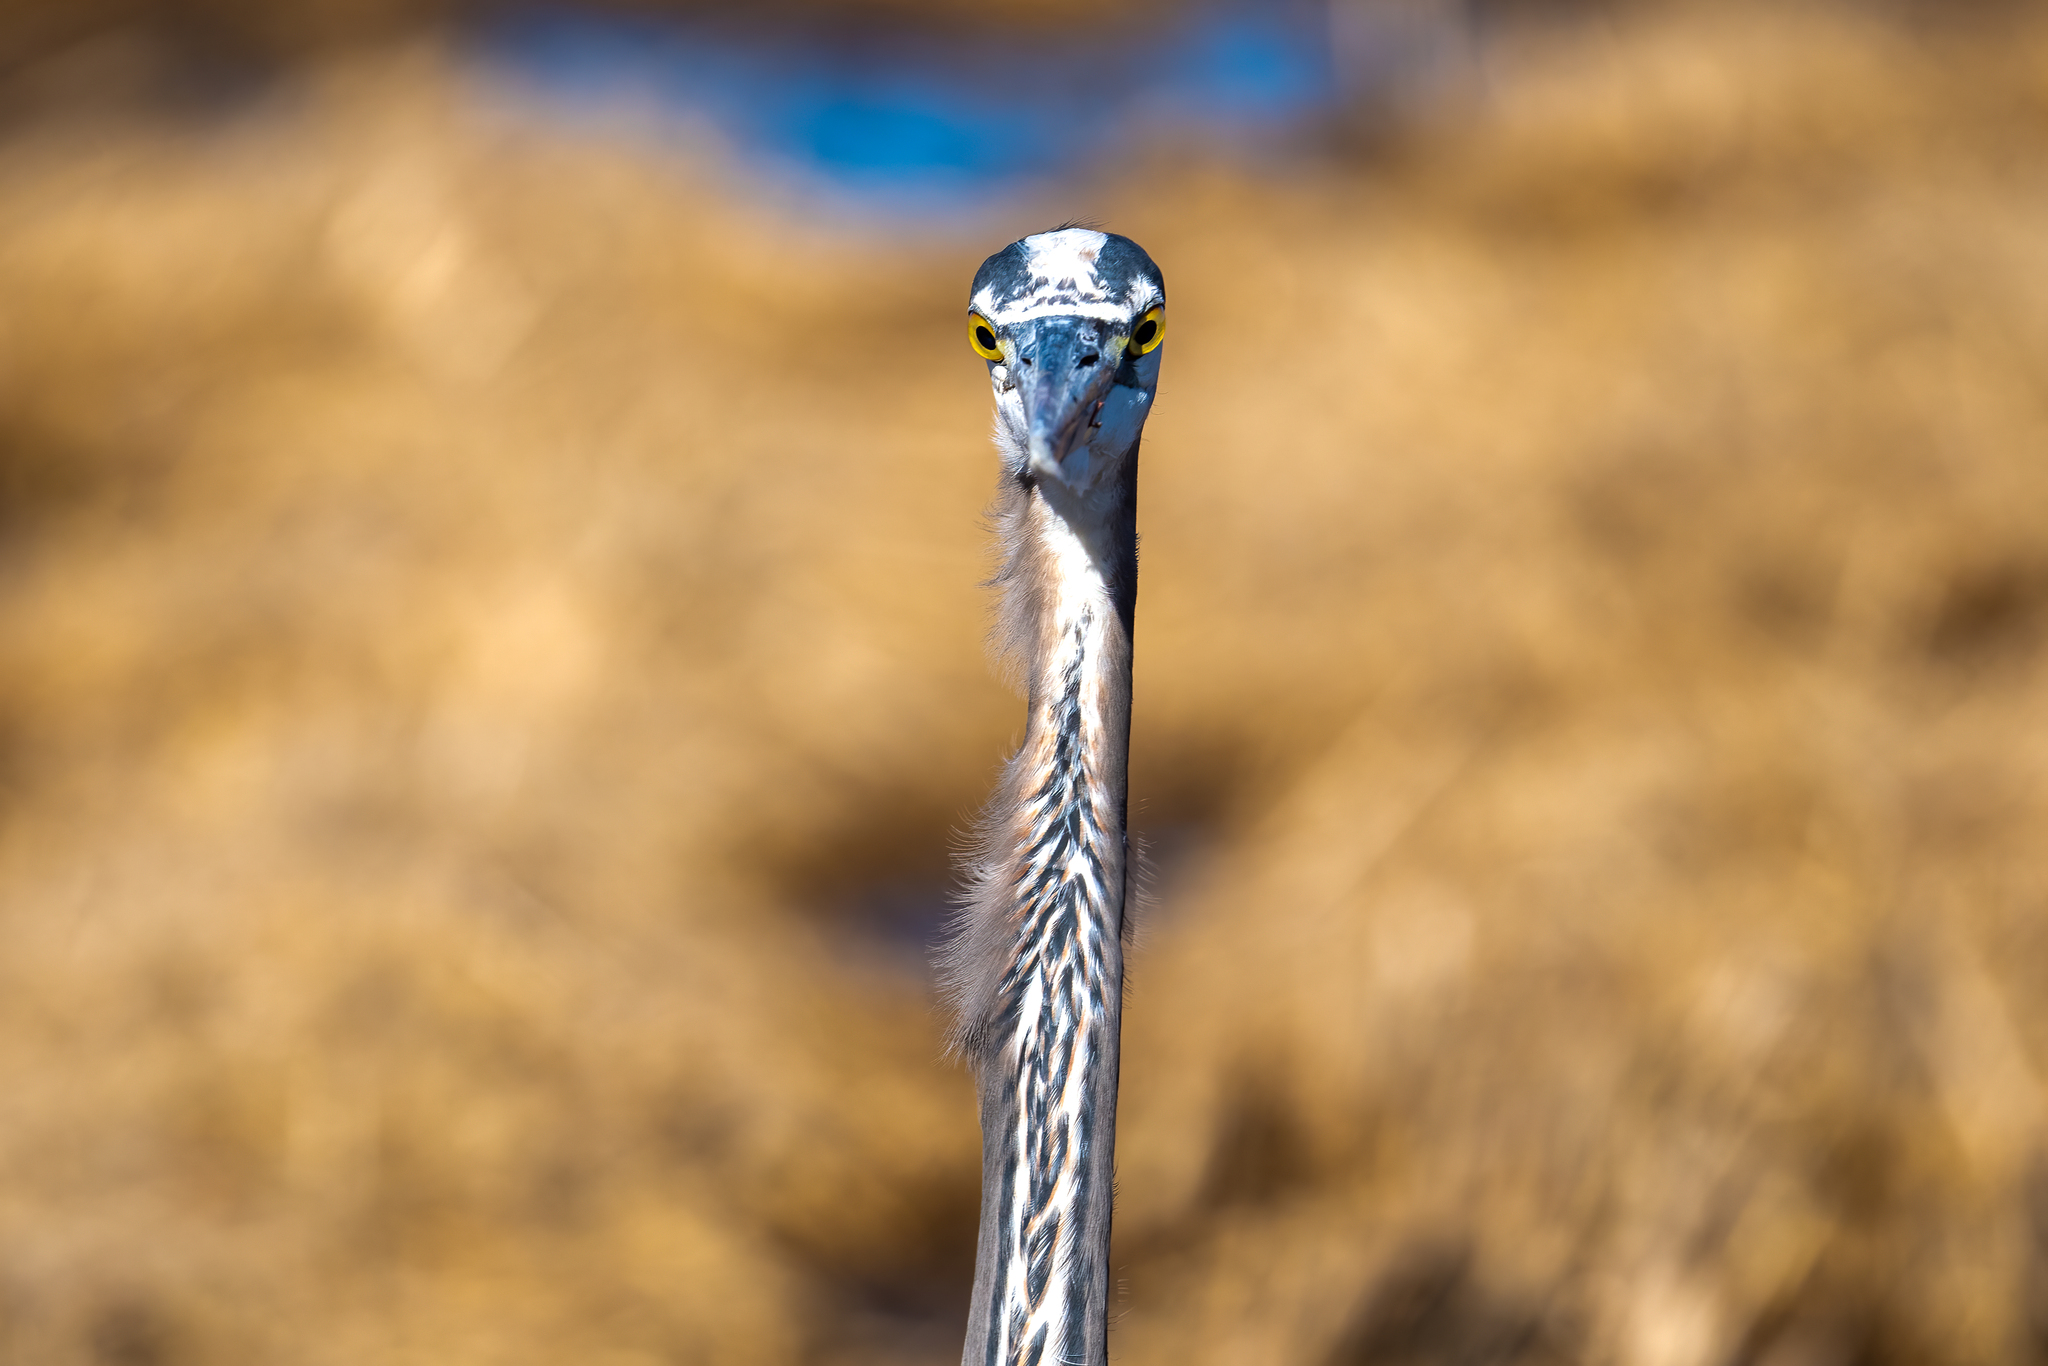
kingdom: Animalia
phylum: Chordata
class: Aves
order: Pelecaniformes
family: Ardeidae
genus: Ardea
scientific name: Ardea herodias
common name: Great blue heron
